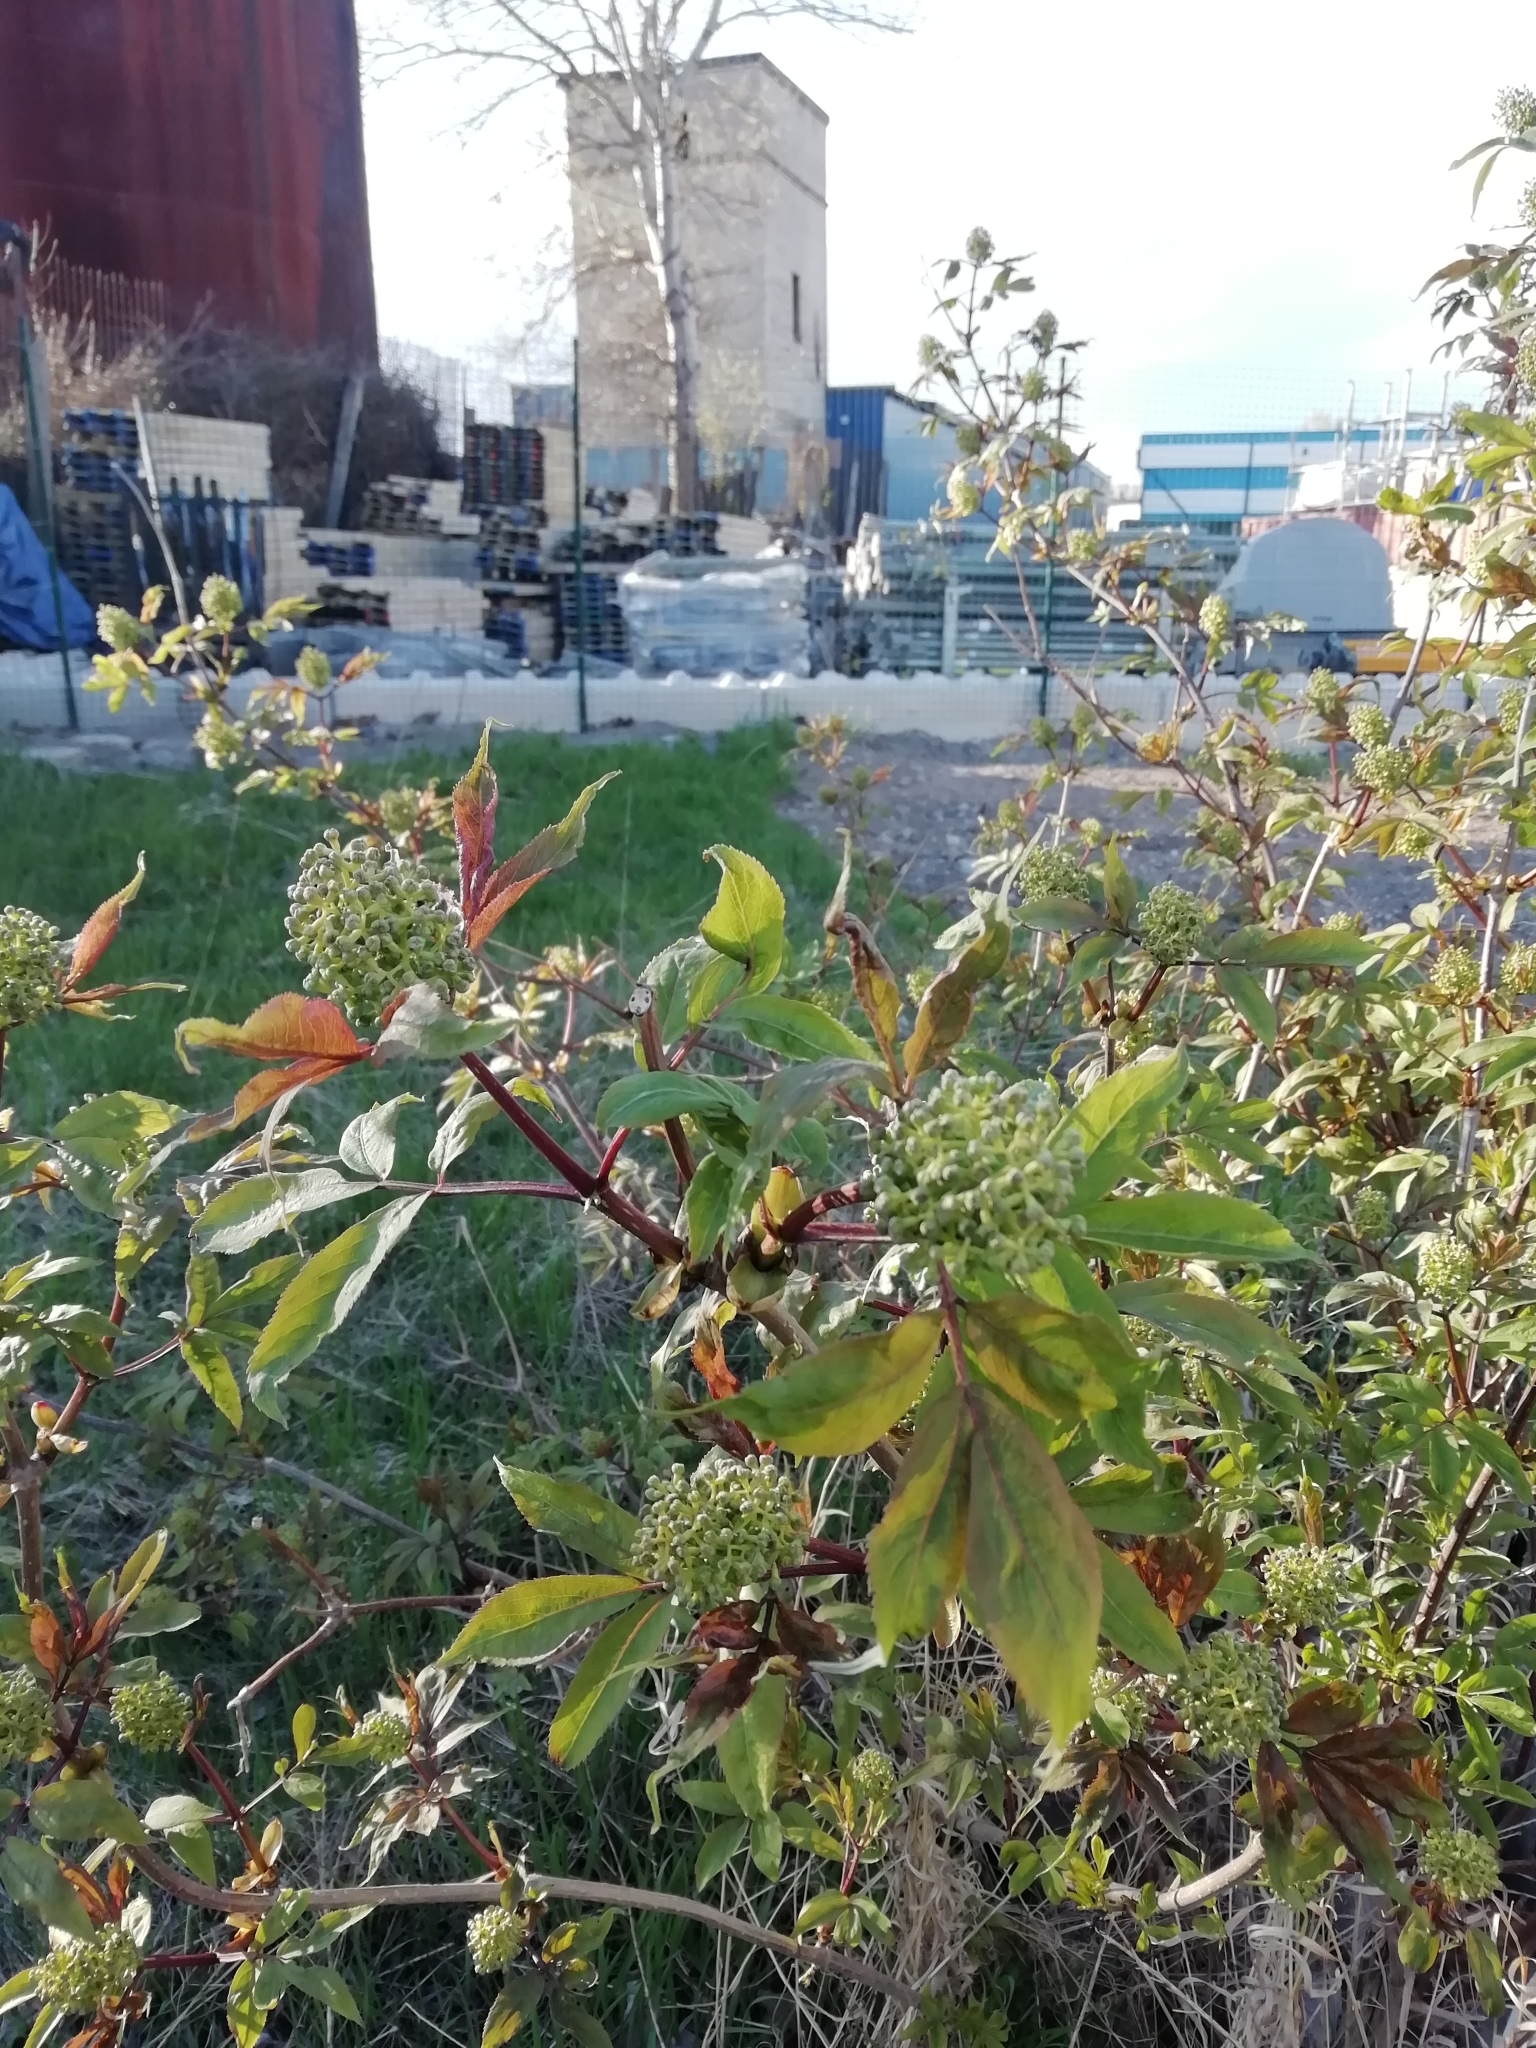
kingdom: Plantae
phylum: Tracheophyta
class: Magnoliopsida
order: Dipsacales
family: Viburnaceae
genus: Sambucus
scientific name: Sambucus racemosa
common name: Red-berried elder
